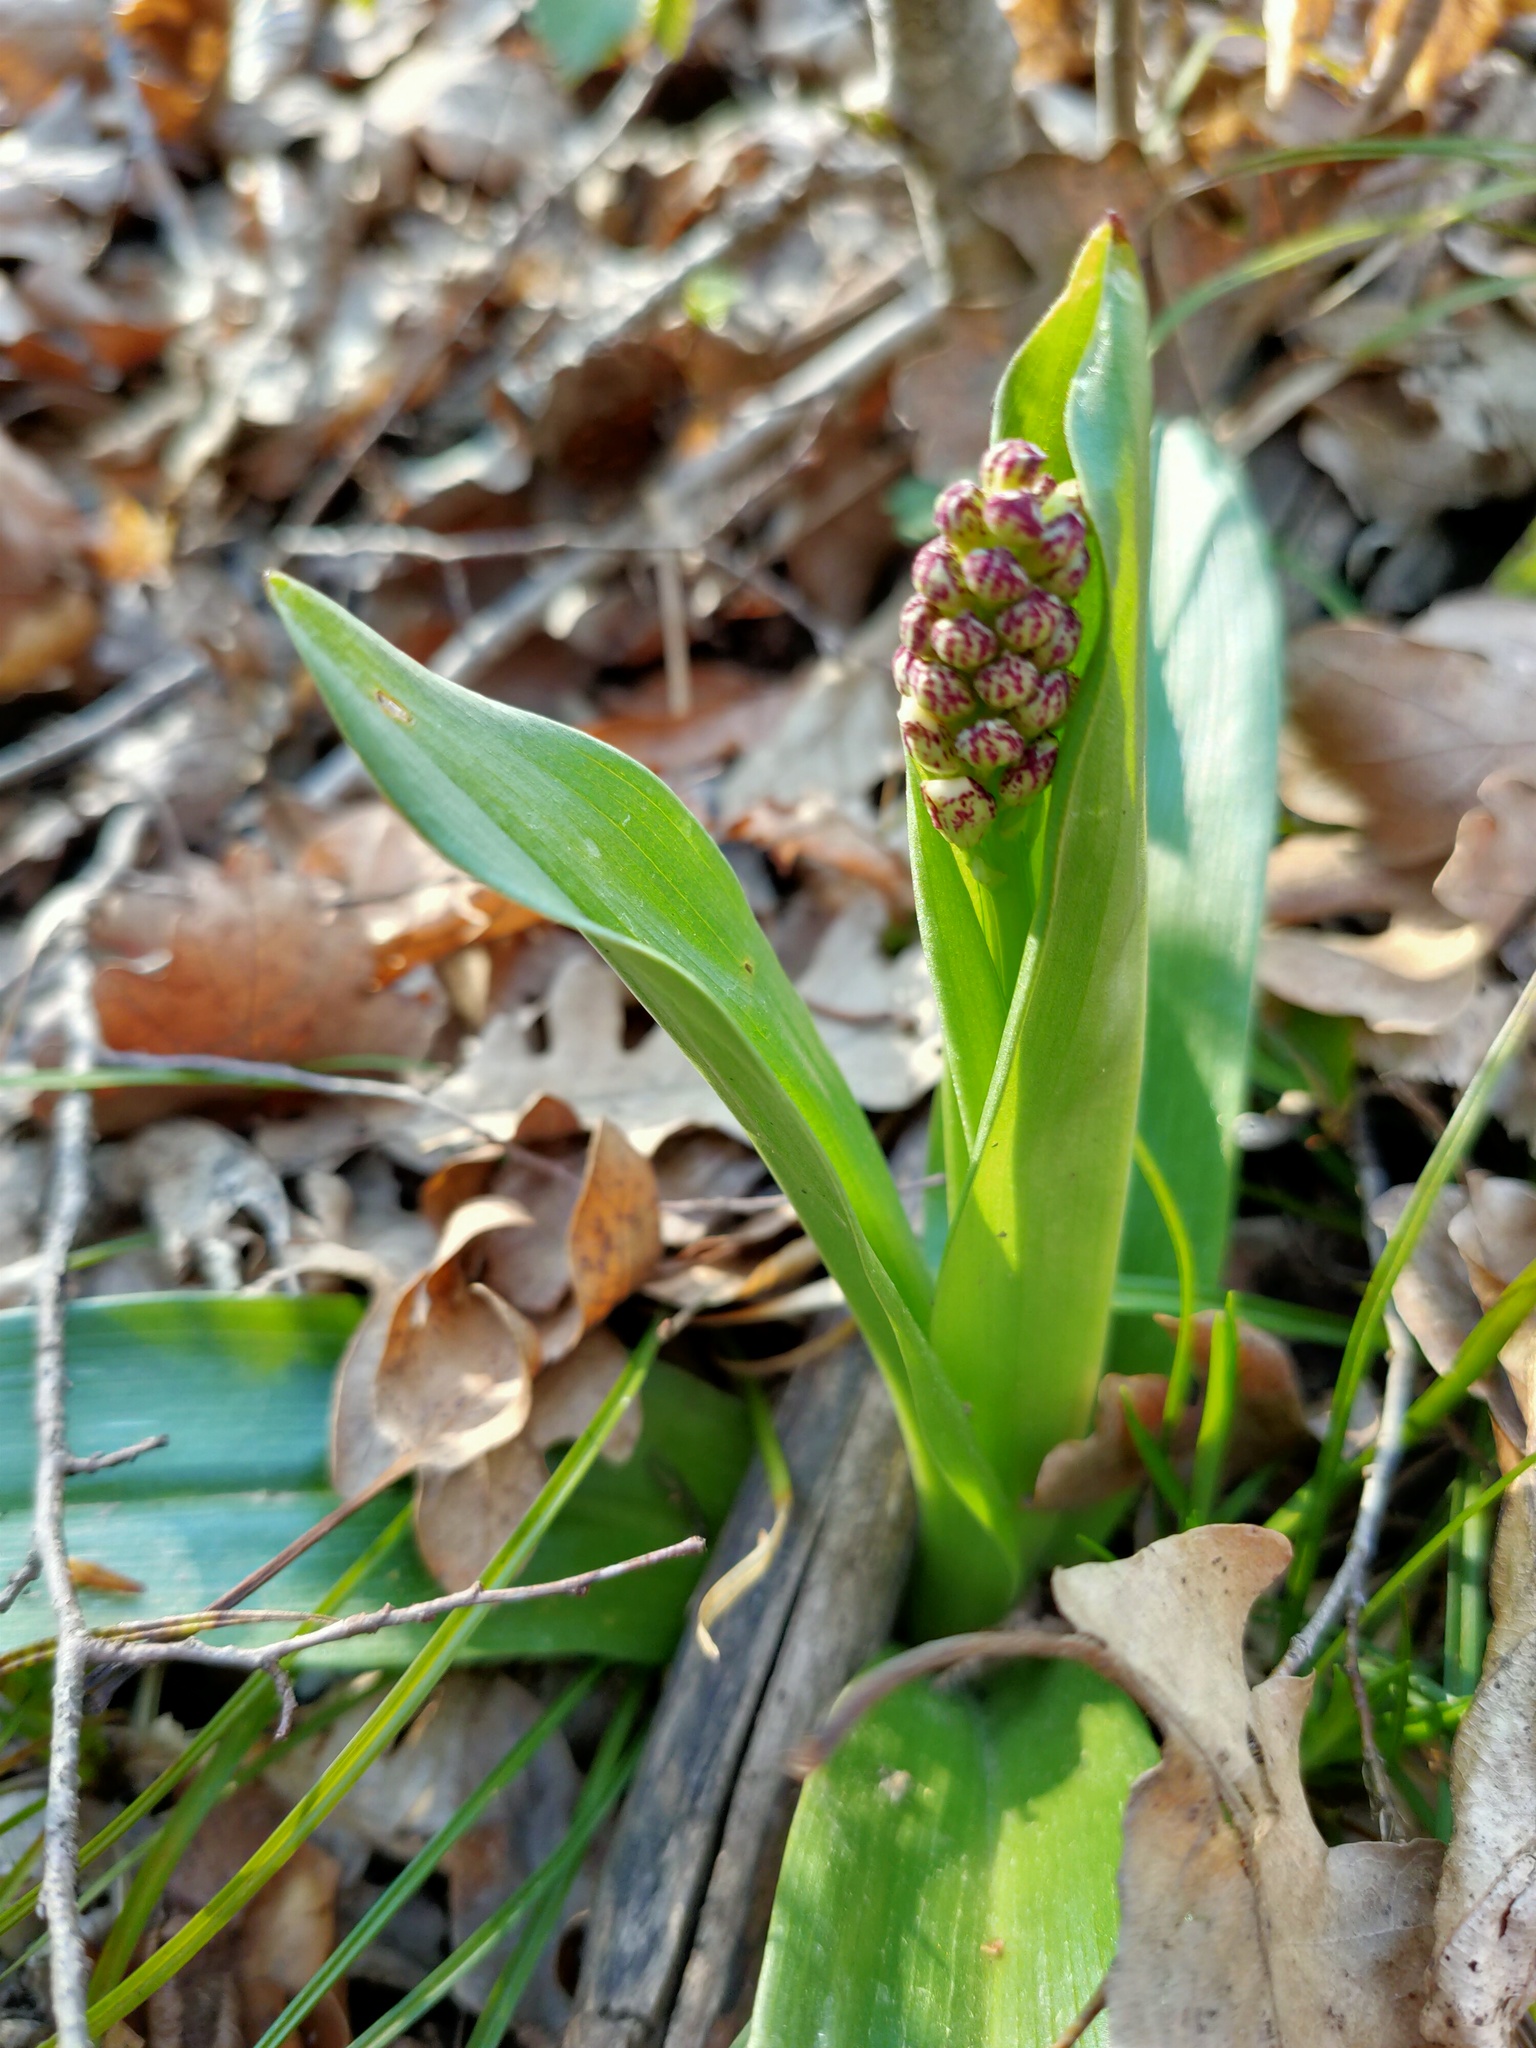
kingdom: Plantae
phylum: Tracheophyta
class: Liliopsida
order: Asparagales
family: Orchidaceae
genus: Orchis
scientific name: Orchis purpurea
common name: Lady orchid
